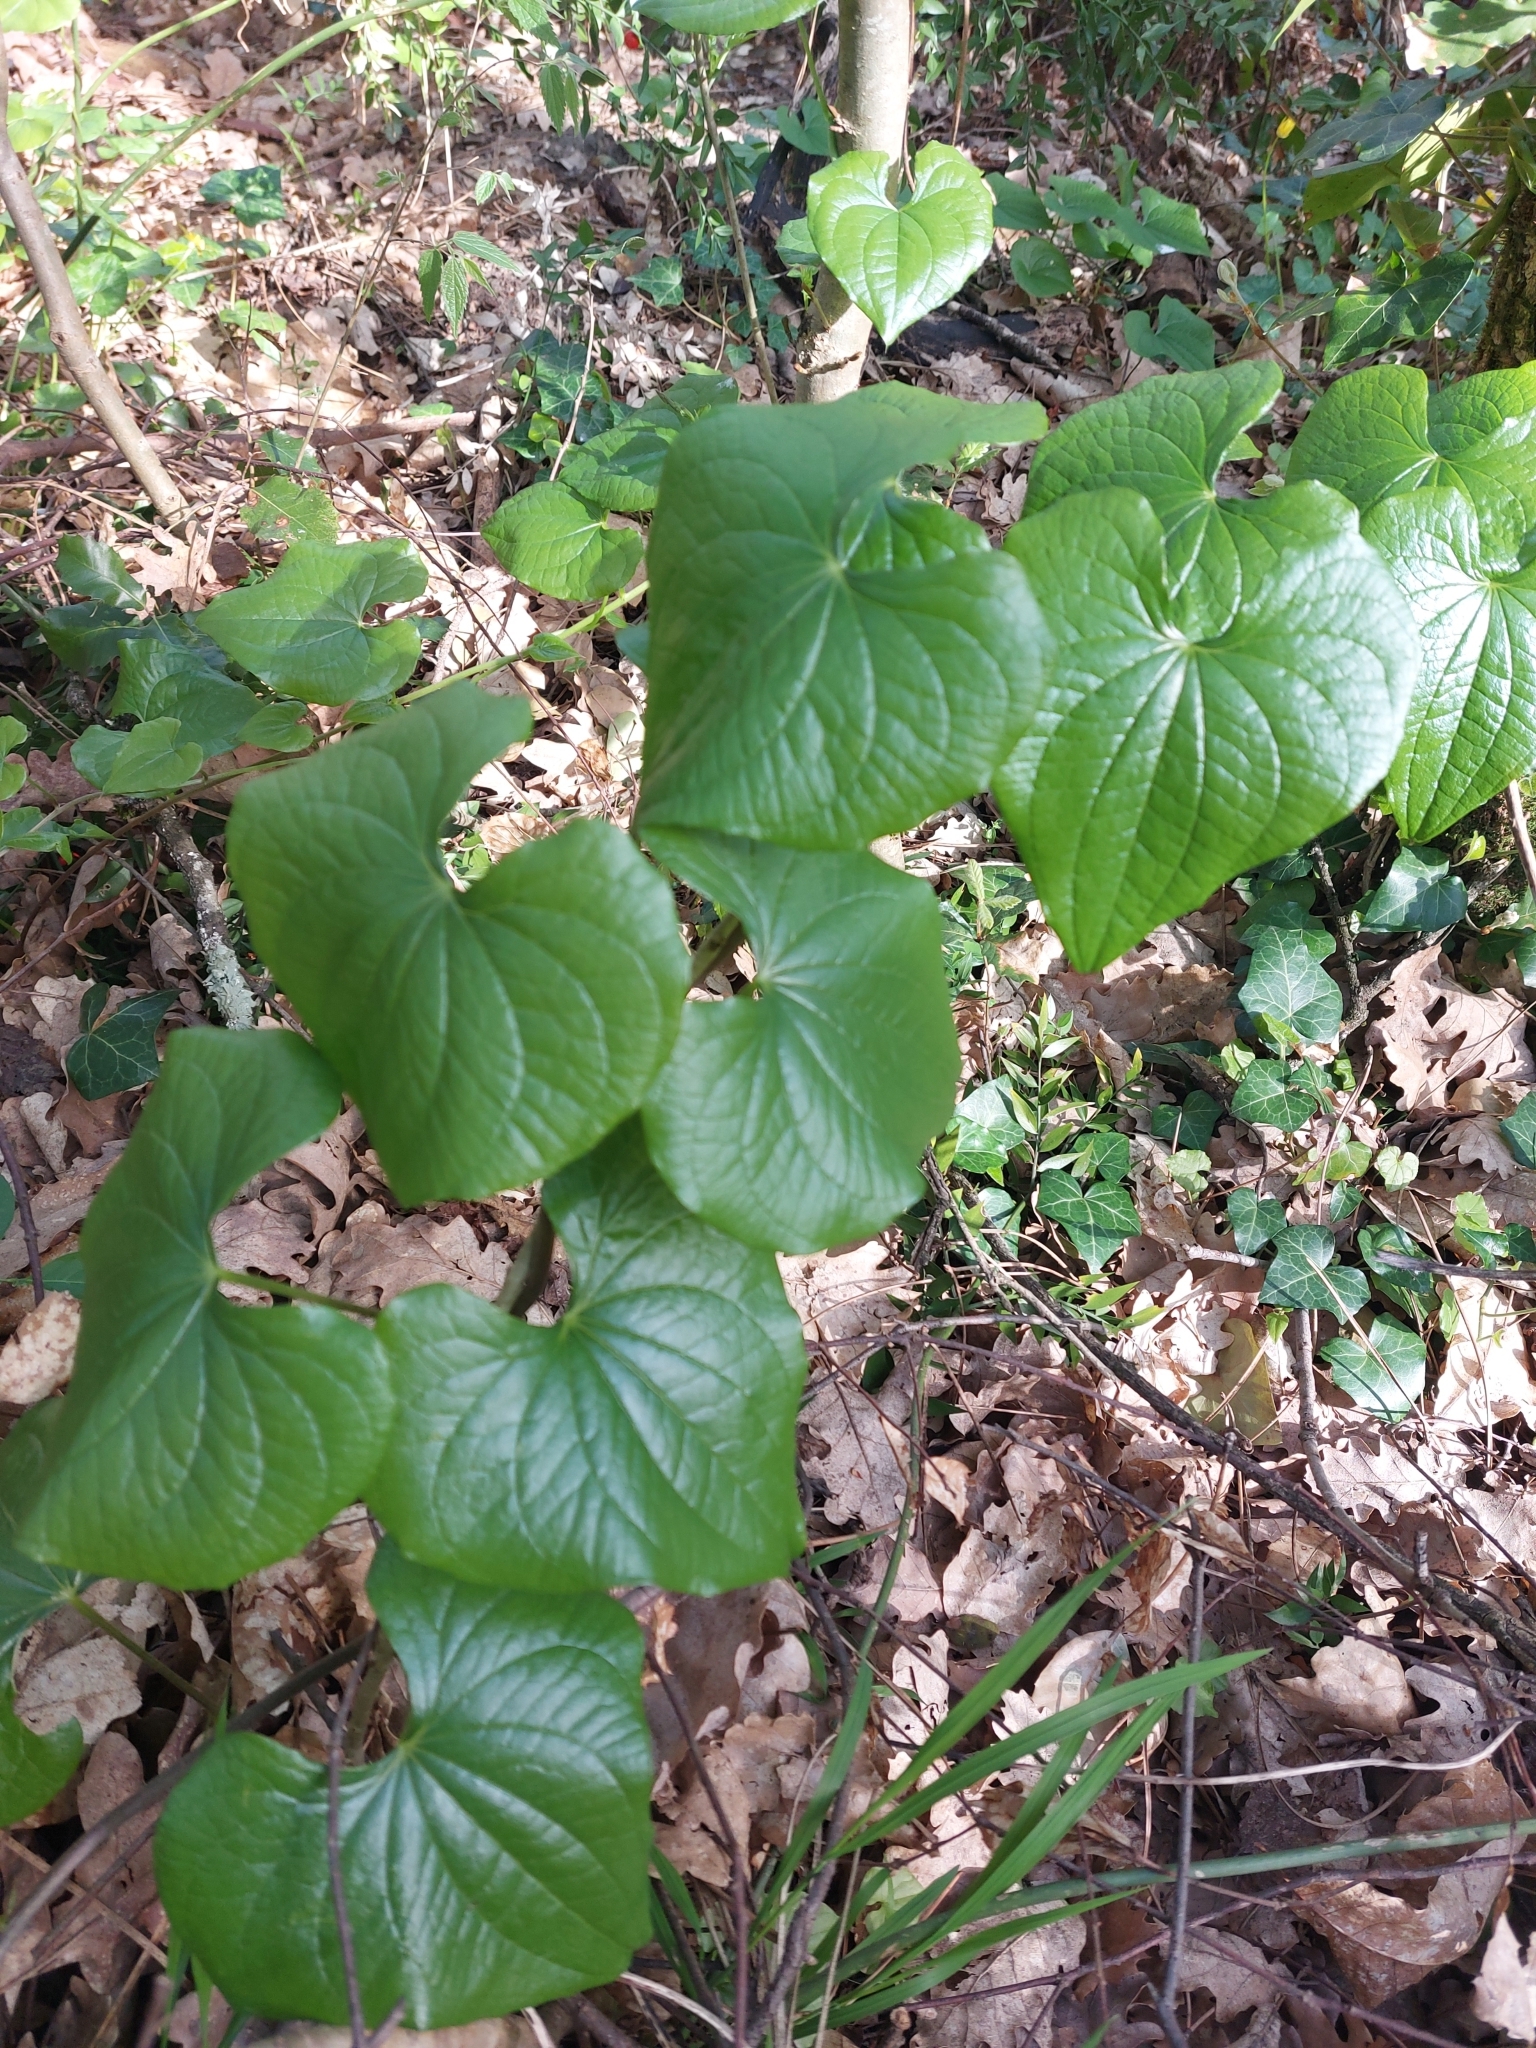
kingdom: Plantae
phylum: Tracheophyta
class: Liliopsida
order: Dioscoreales
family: Dioscoreaceae
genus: Dioscorea
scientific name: Dioscorea communis
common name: Black-bindweed
